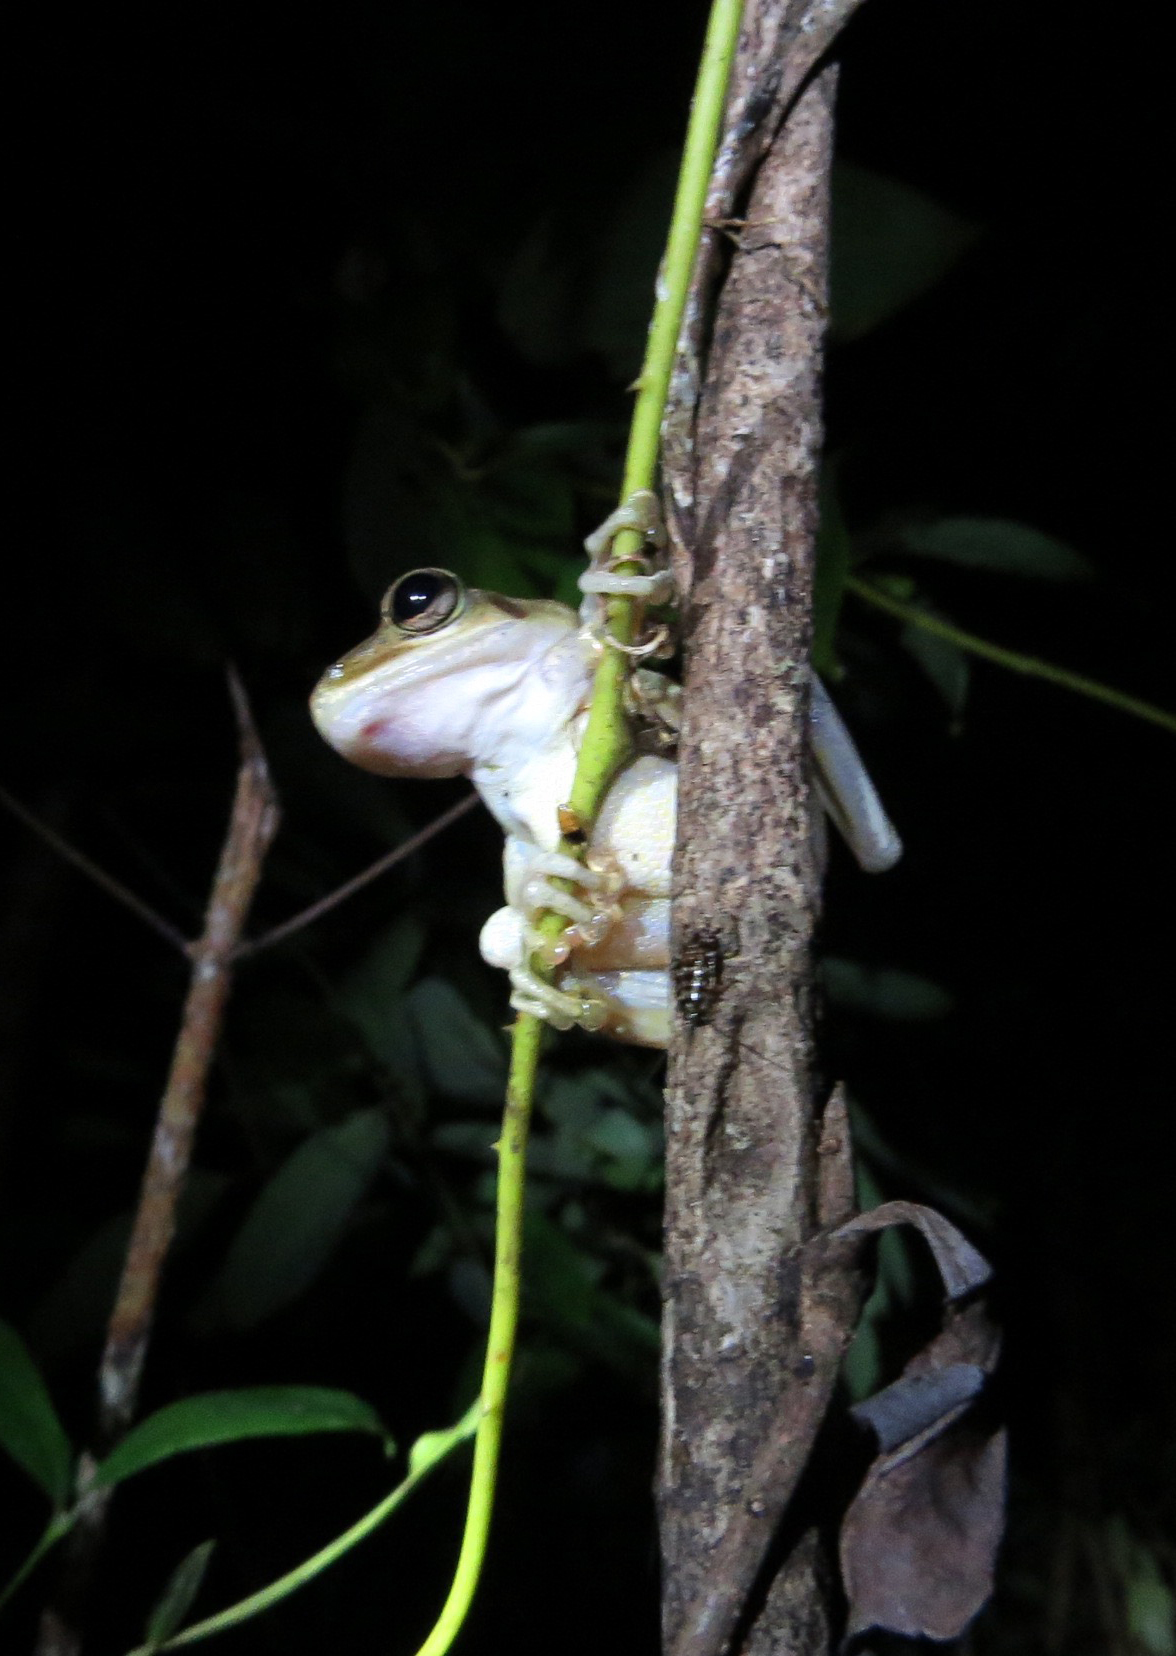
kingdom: Animalia
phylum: Chordata
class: Amphibia
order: Anura
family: Mantellidae
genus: Boophis
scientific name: Boophis tephraeomystax
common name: Dumeril's bright-eyed frog
